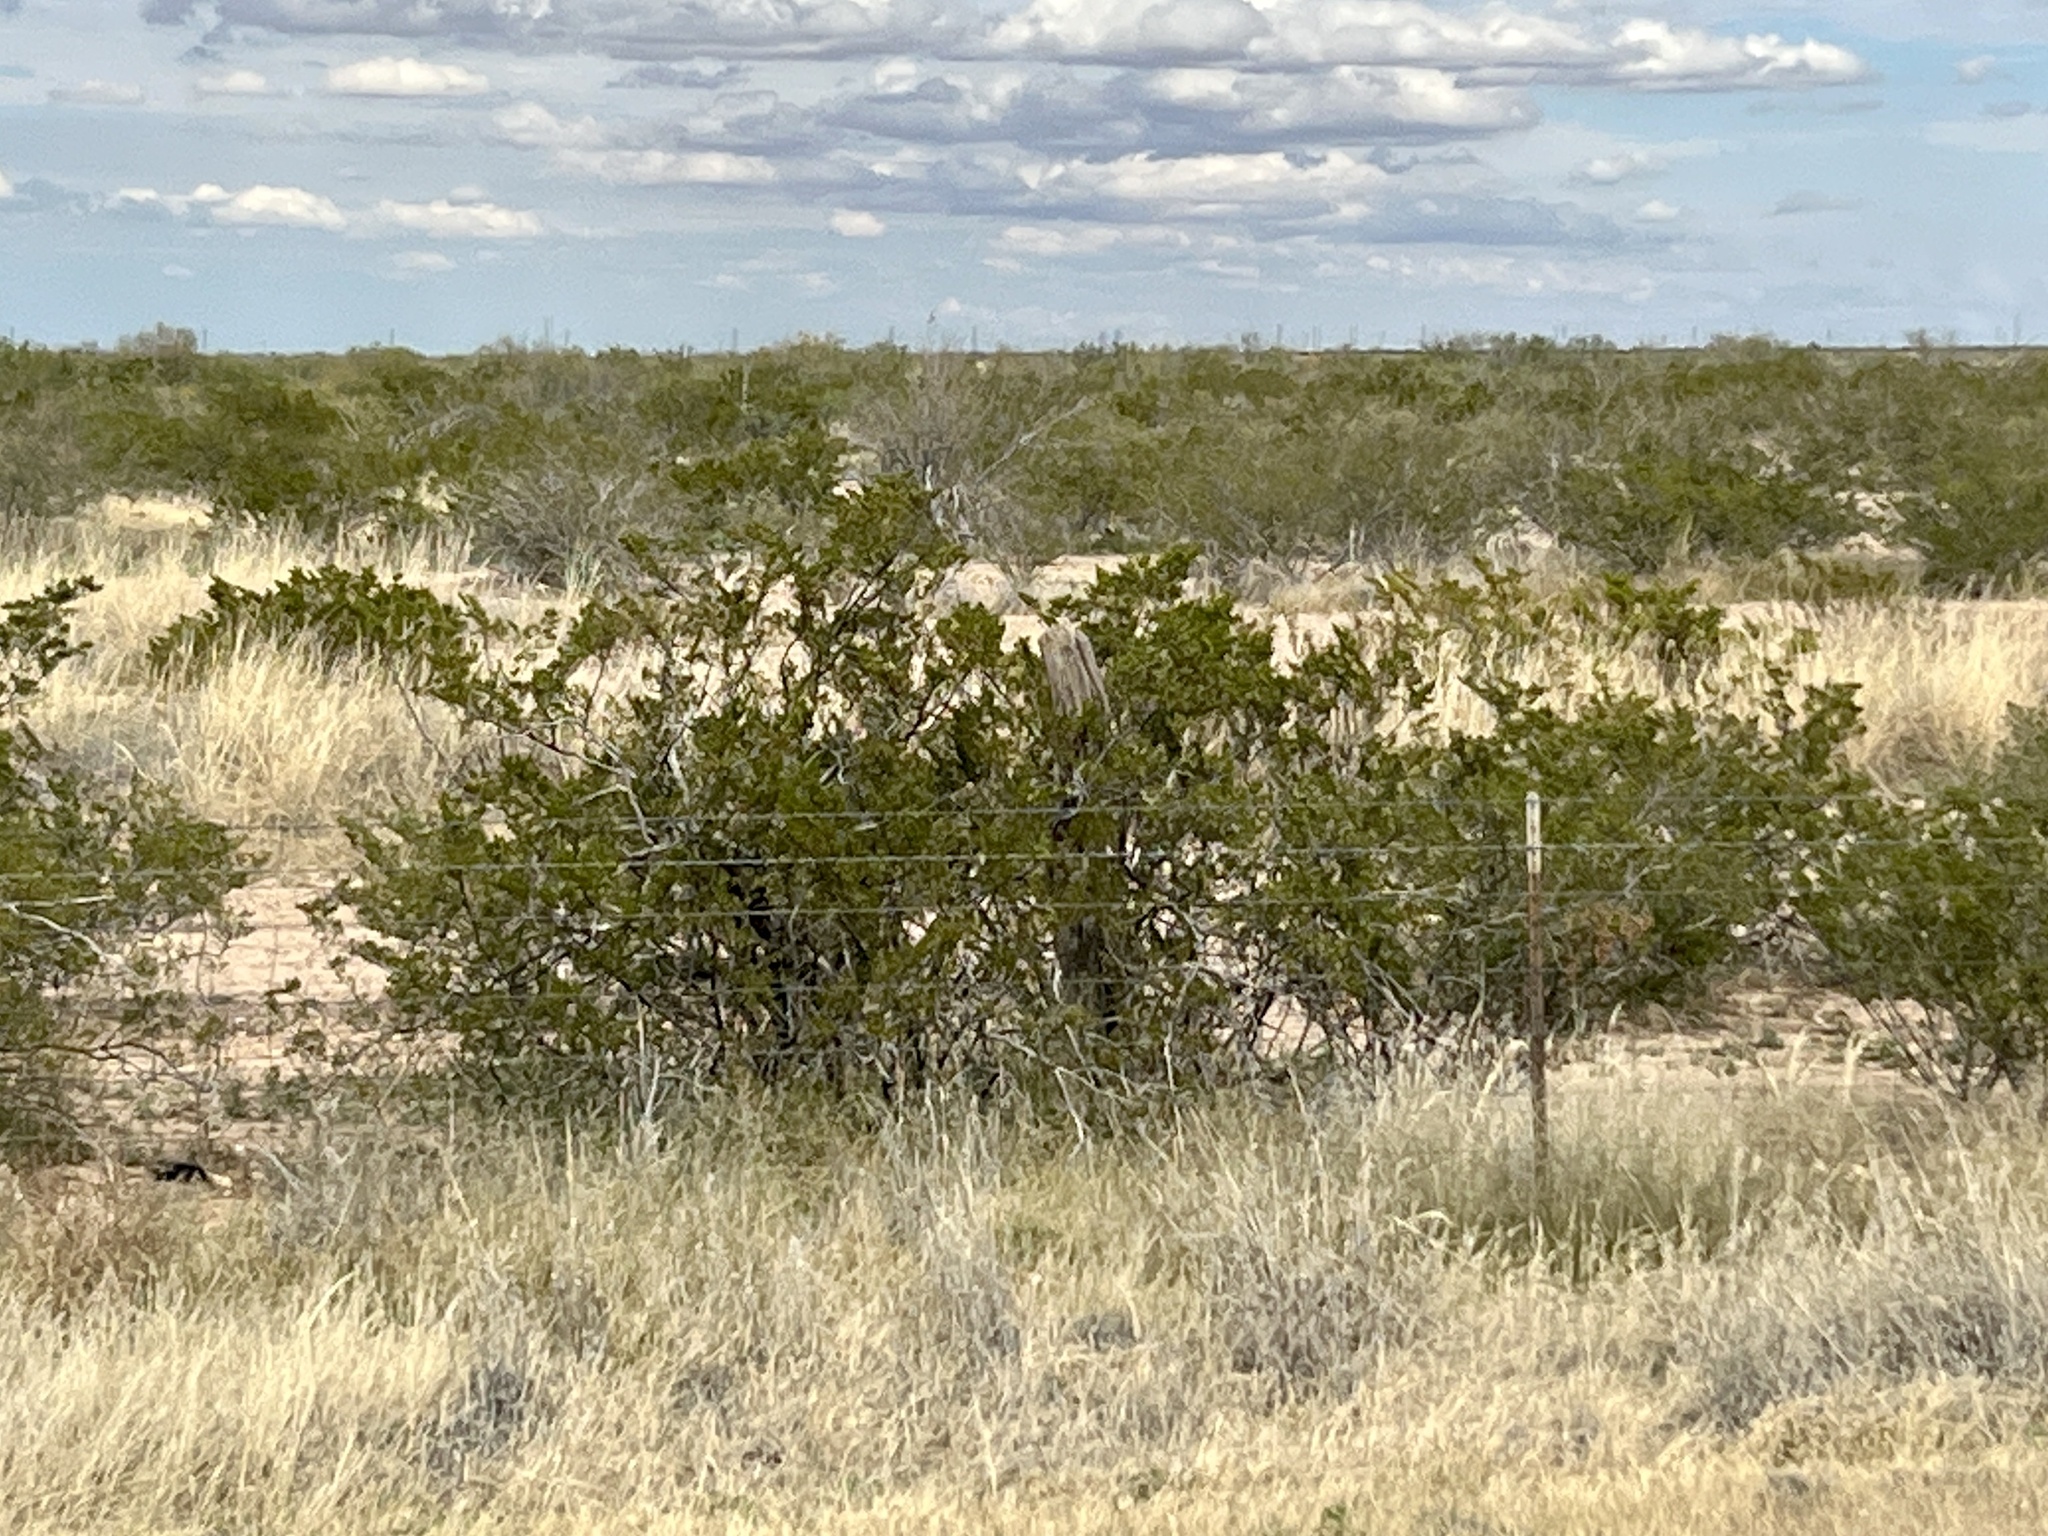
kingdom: Plantae
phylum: Tracheophyta
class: Magnoliopsida
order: Zygophyllales
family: Zygophyllaceae
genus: Larrea
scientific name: Larrea tridentata
